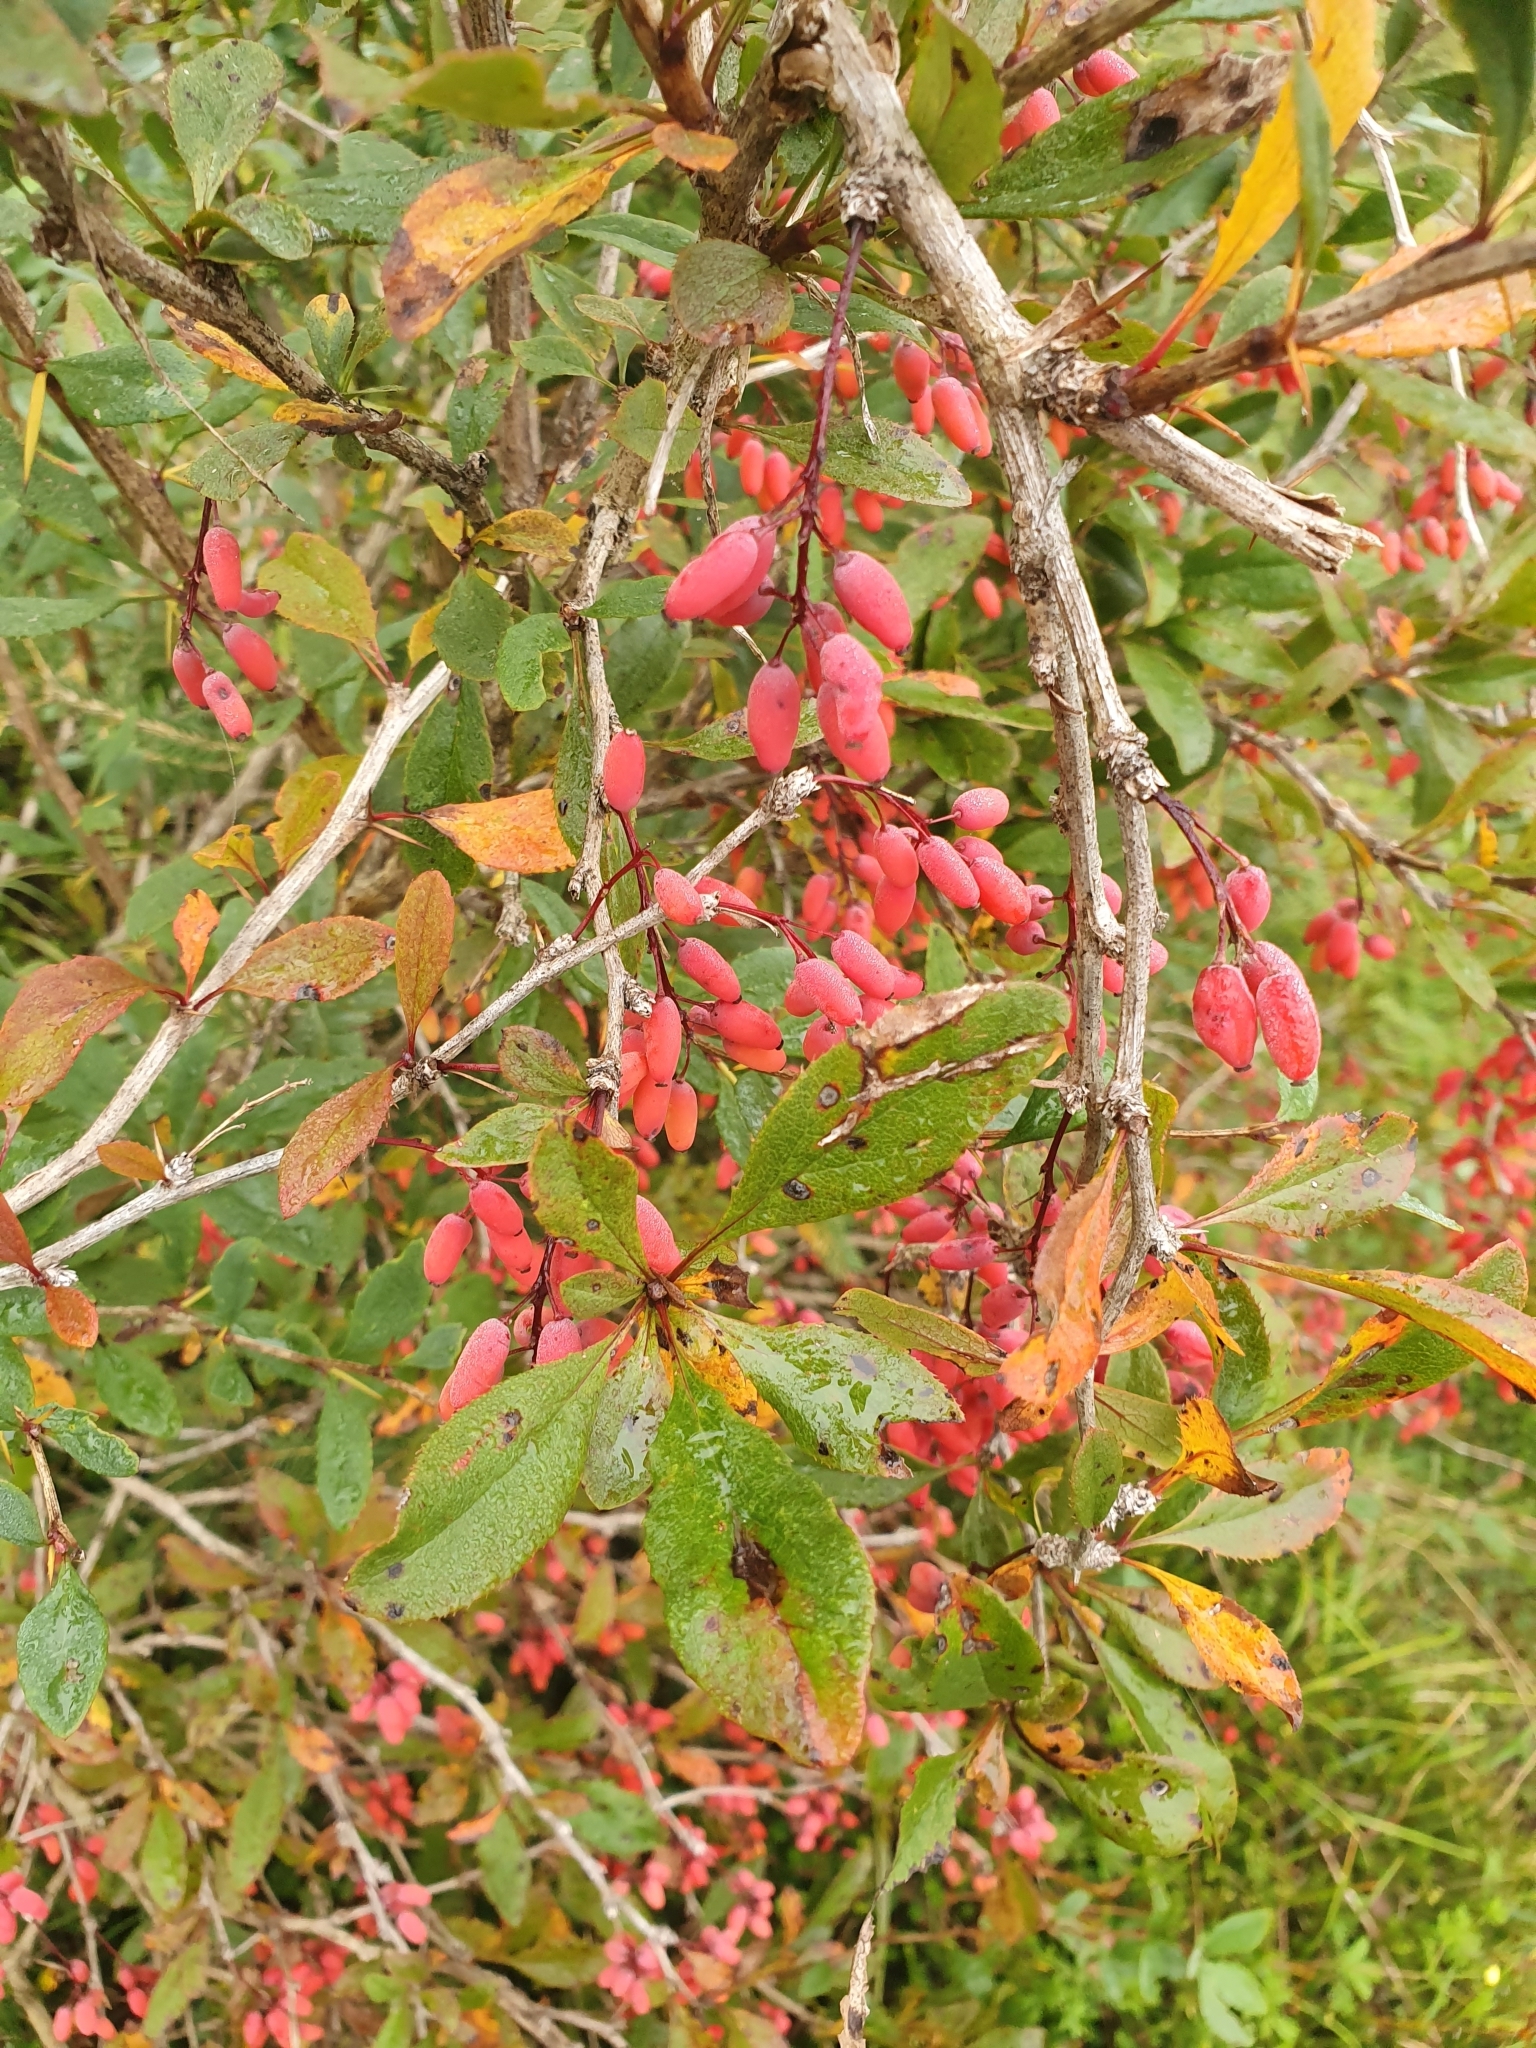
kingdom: Plantae
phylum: Tracheophyta
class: Magnoliopsida
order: Ranunculales
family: Berberidaceae
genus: Berberis
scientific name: Berberis vulgaris
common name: Barberry
